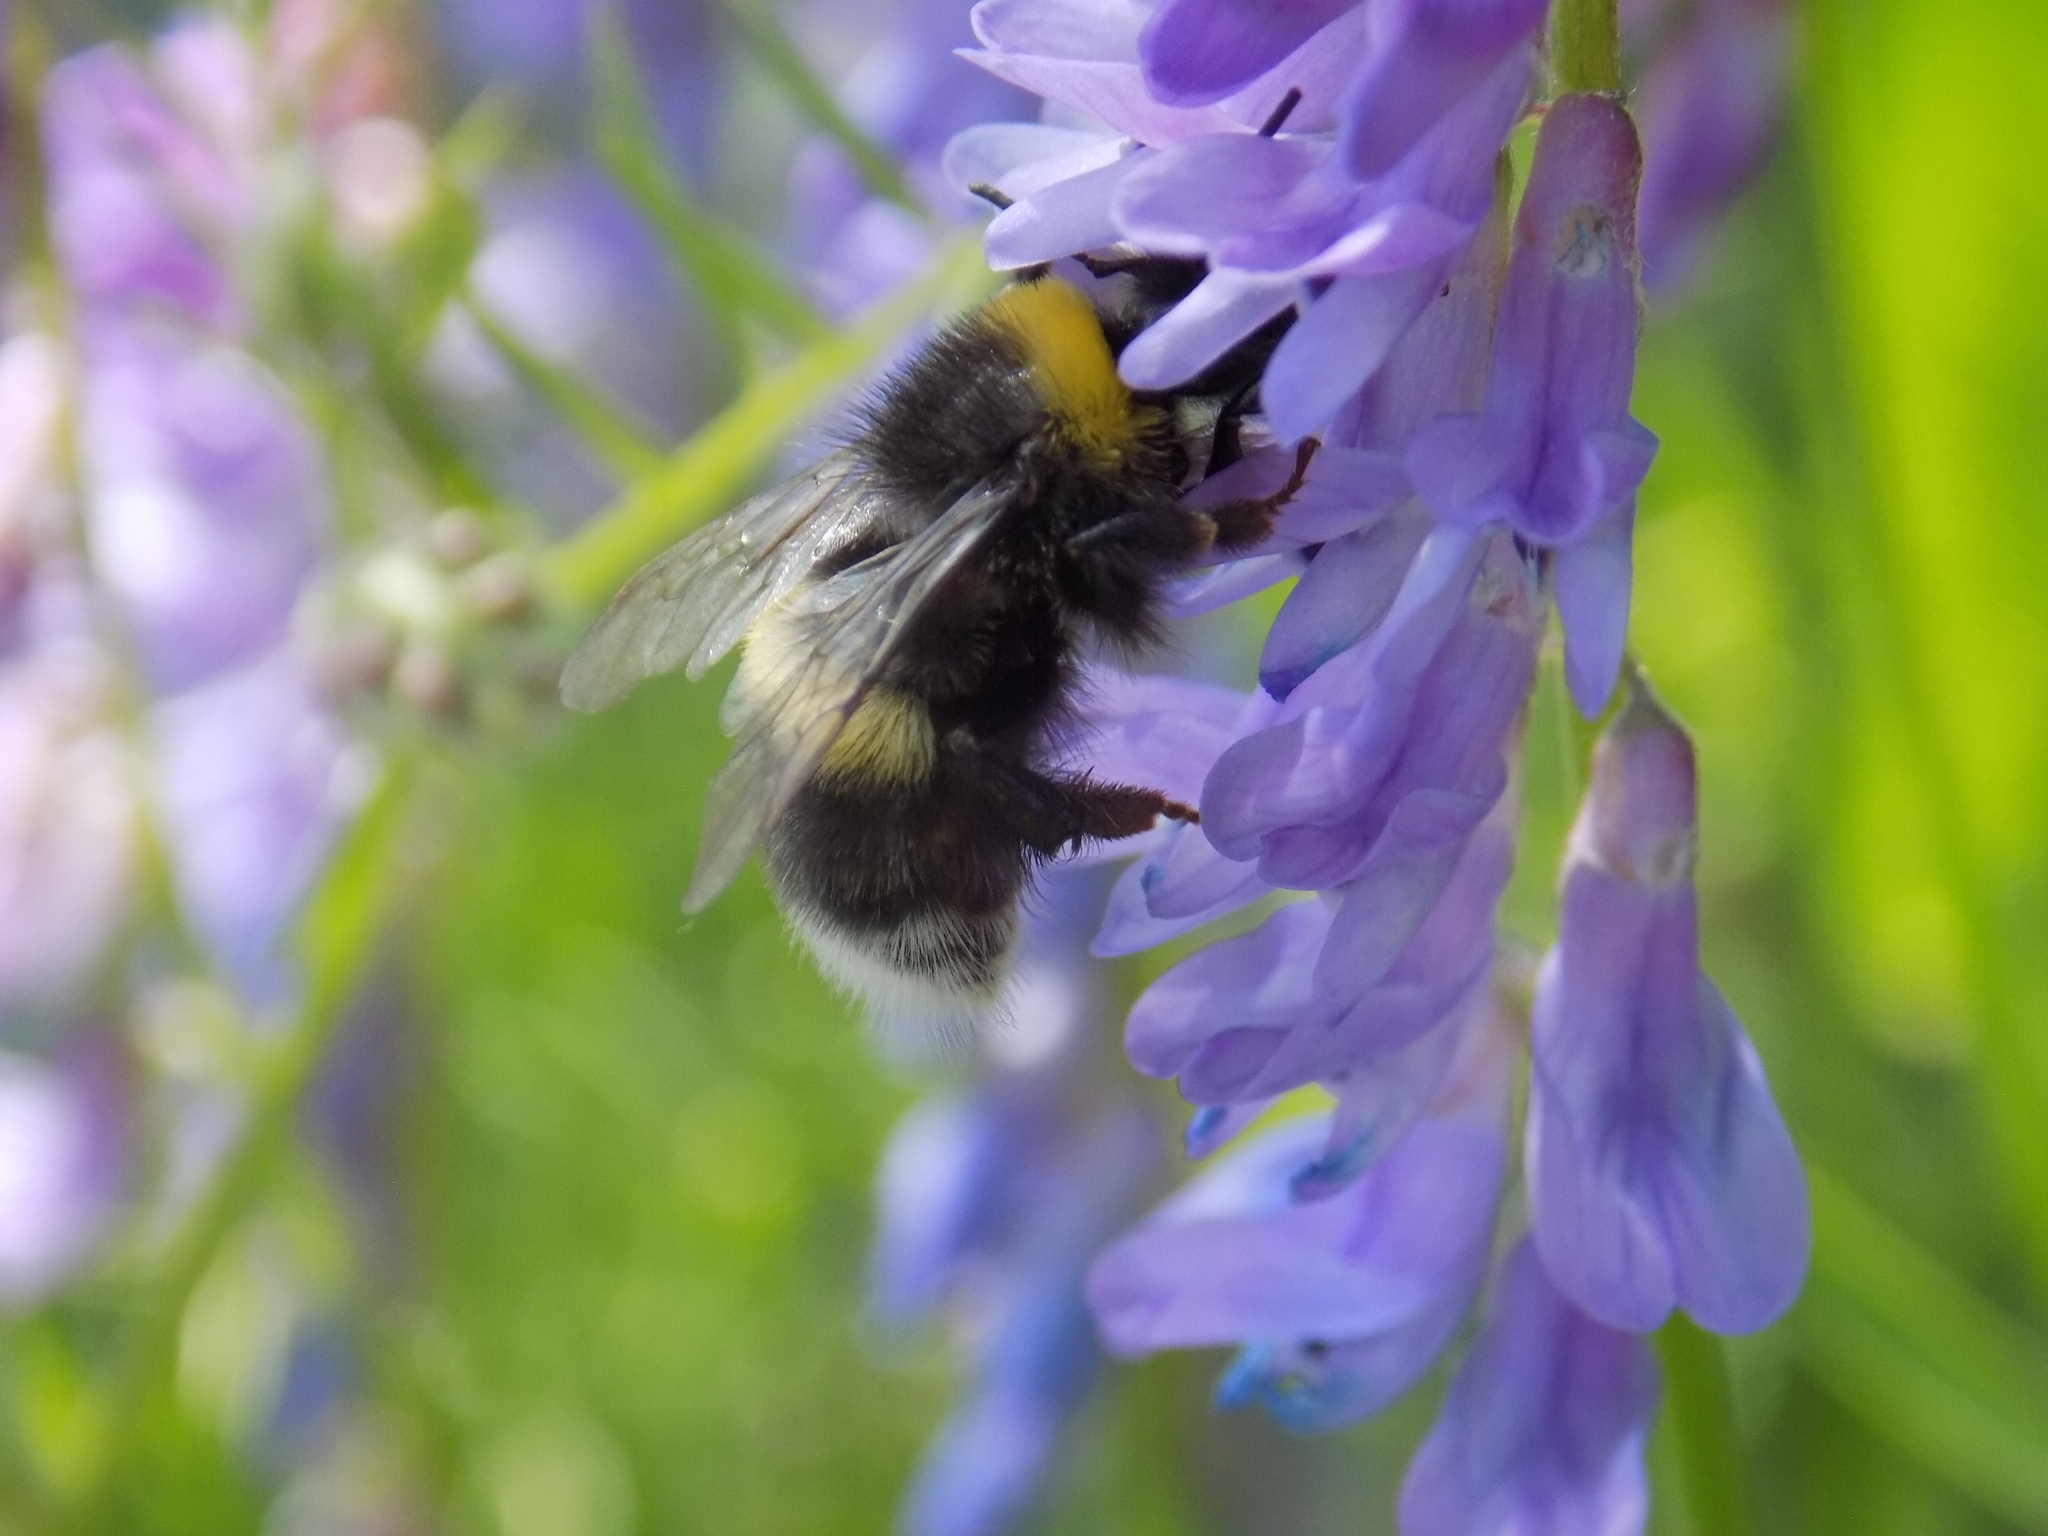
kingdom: Animalia
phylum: Arthropoda
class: Insecta
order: Hymenoptera
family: Apidae
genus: Bombus
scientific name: Bombus
